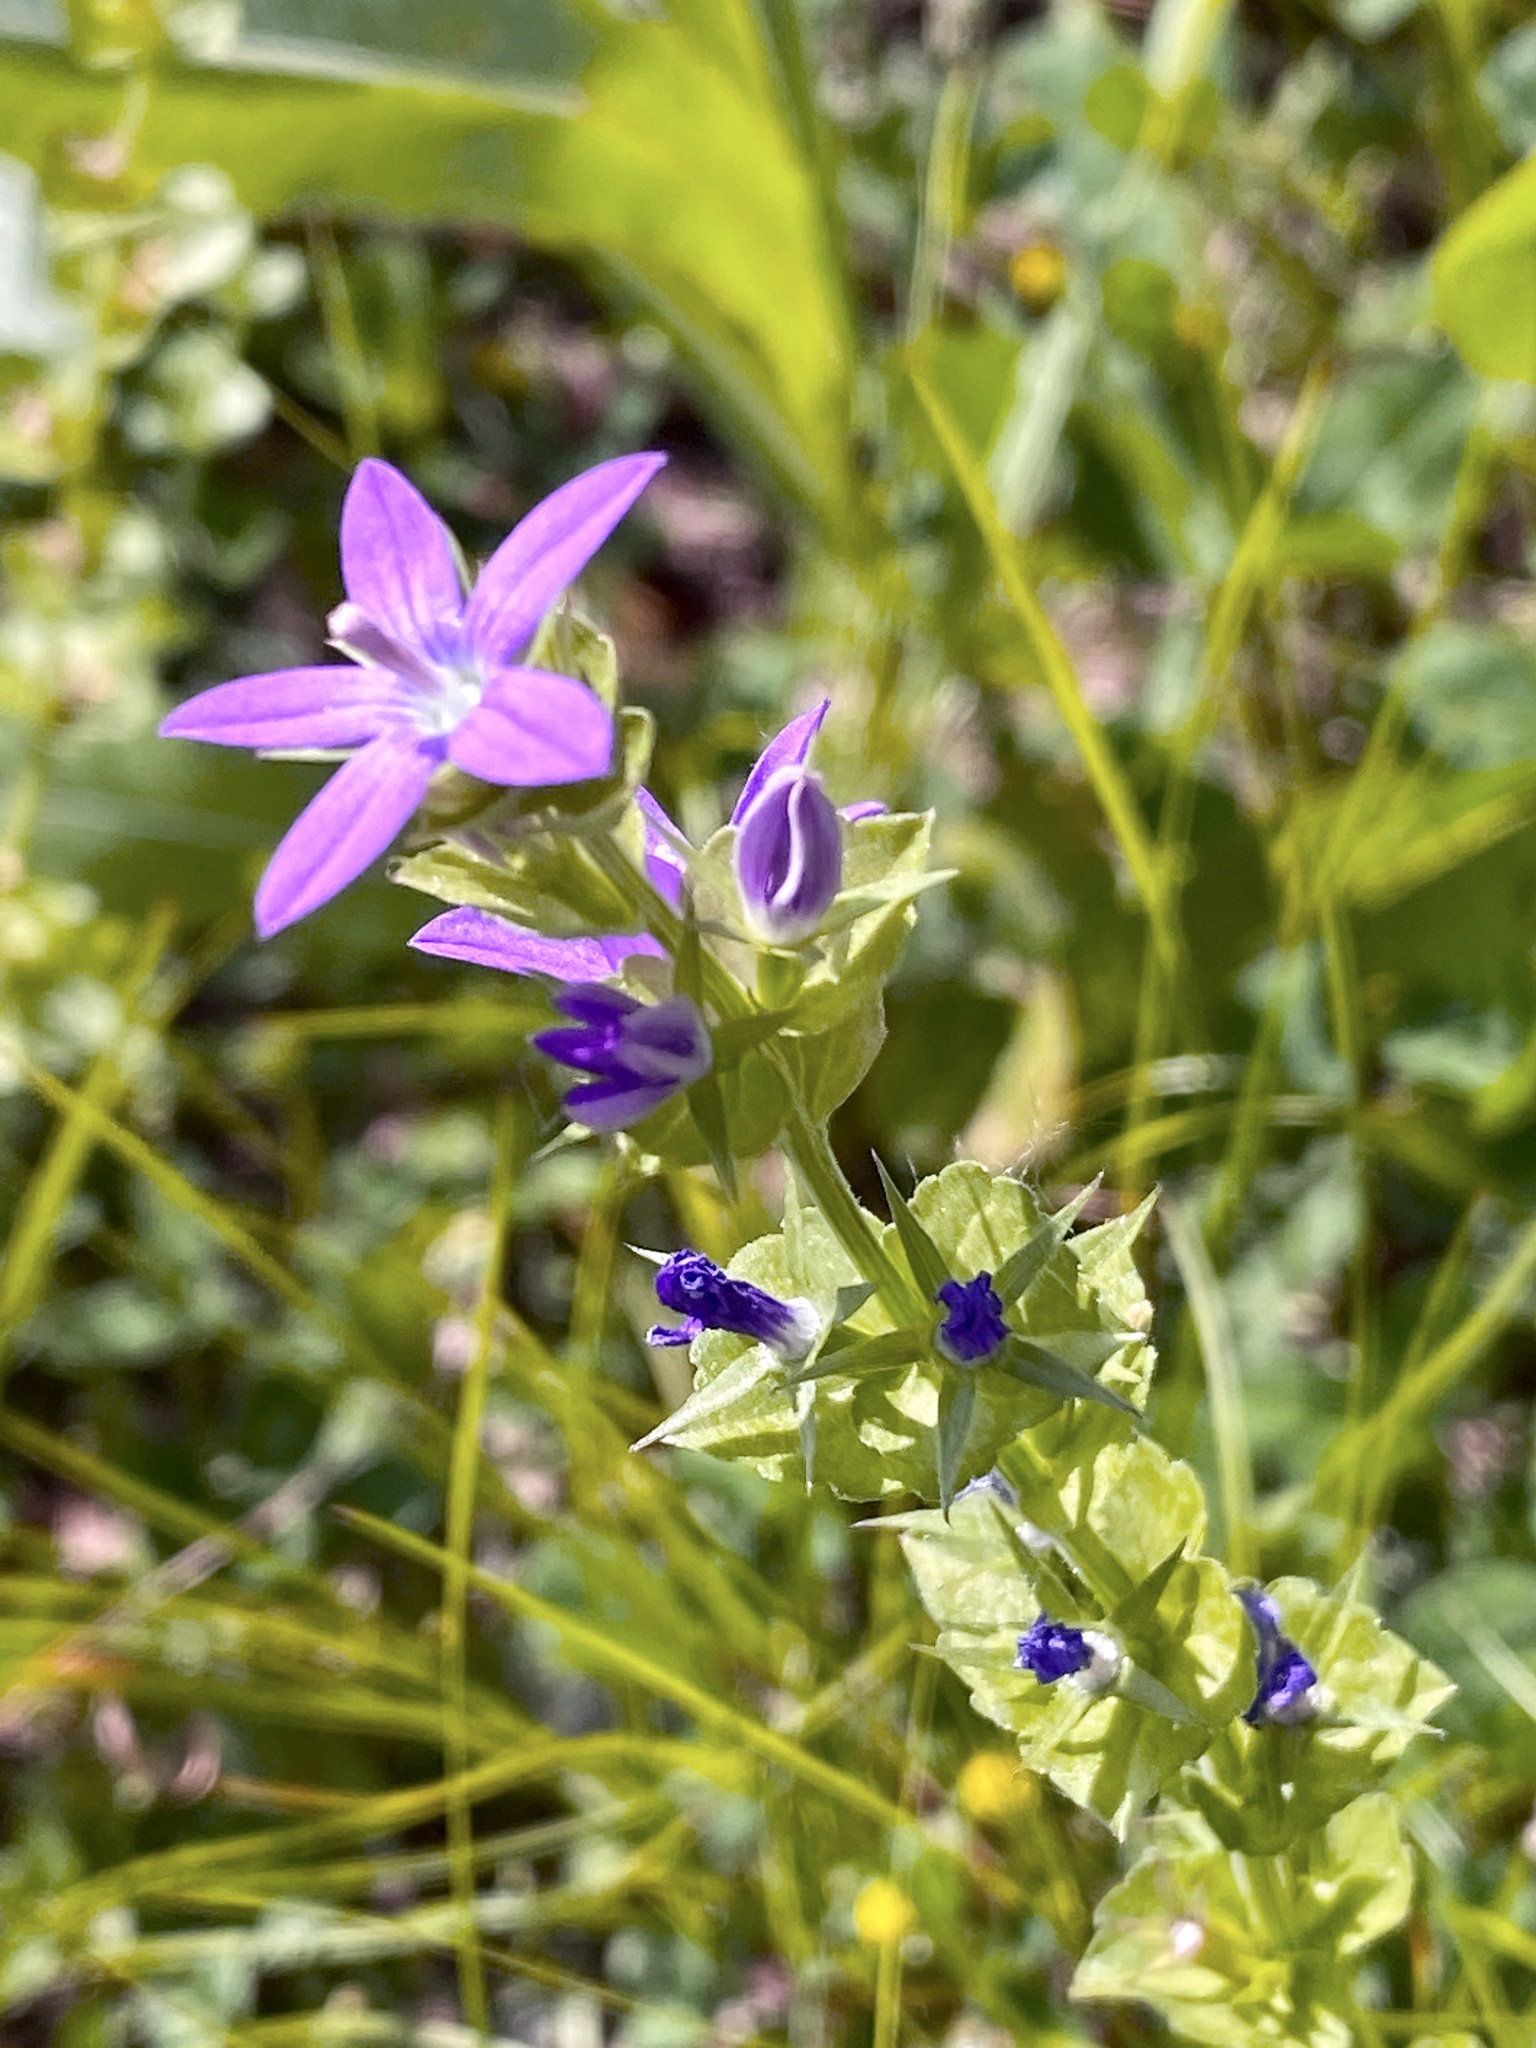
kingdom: Plantae
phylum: Tracheophyta
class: Magnoliopsida
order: Asterales
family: Campanulaceae
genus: Triodanis
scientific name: Triodanis perfoliata
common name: Clasping venus' looking-glass
